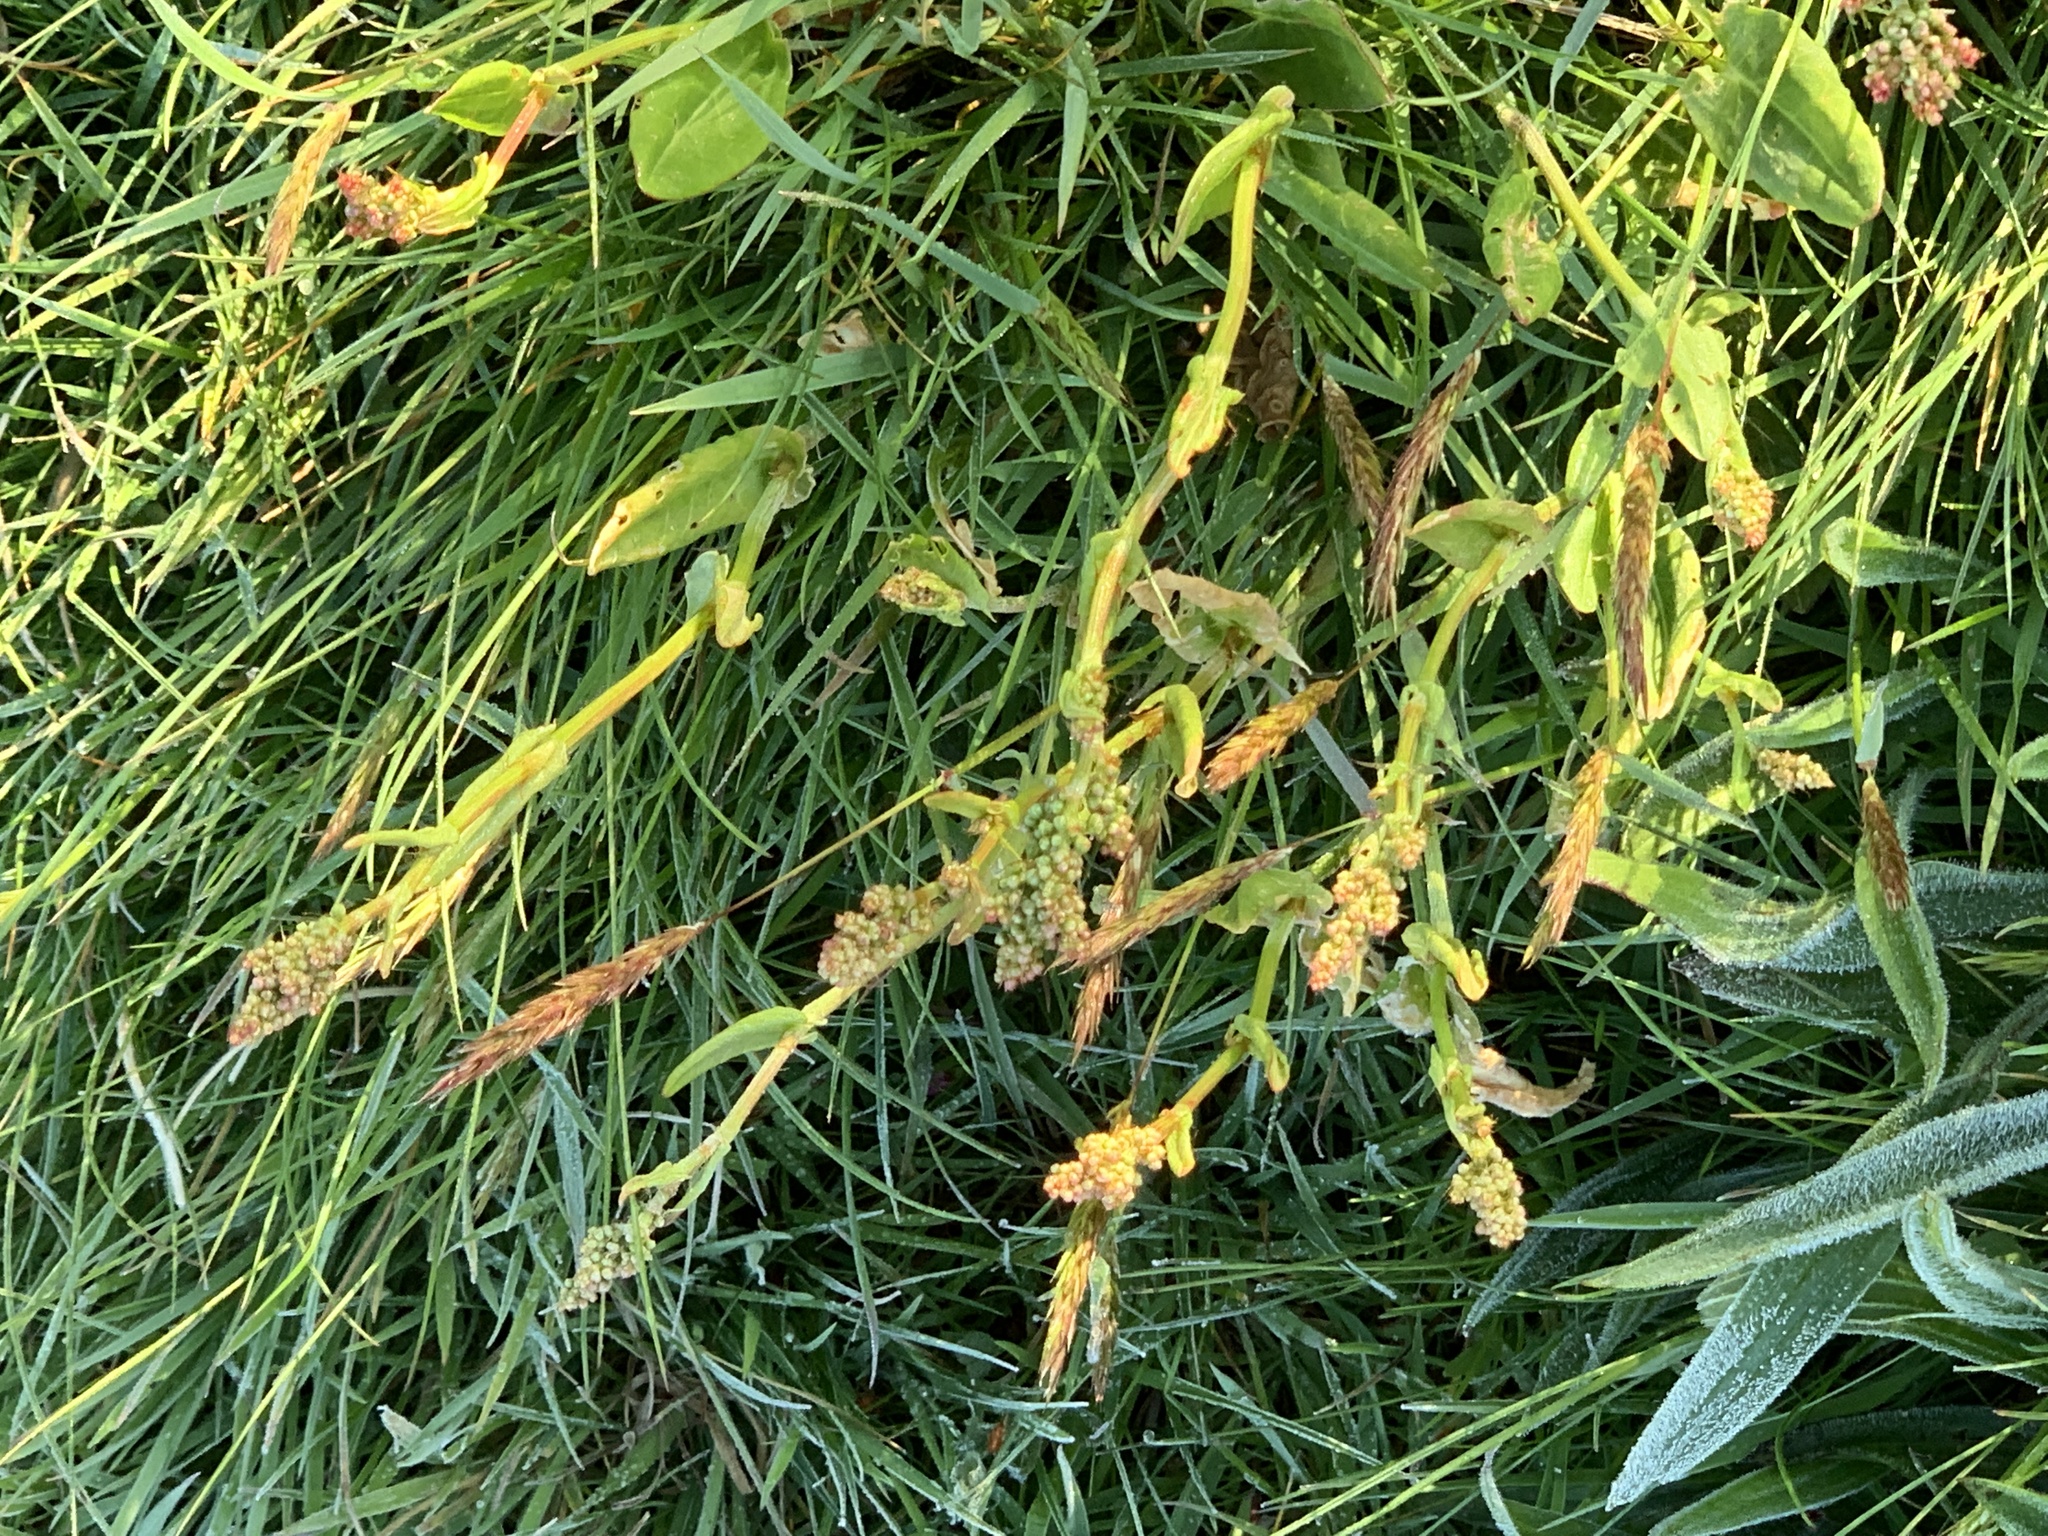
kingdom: Plantae
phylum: Tracheophyta
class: Magnoliopsida
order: Caryophyllales
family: Polygonaceae
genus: Rumex
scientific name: Rumex acetosa
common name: Garden sorrel
